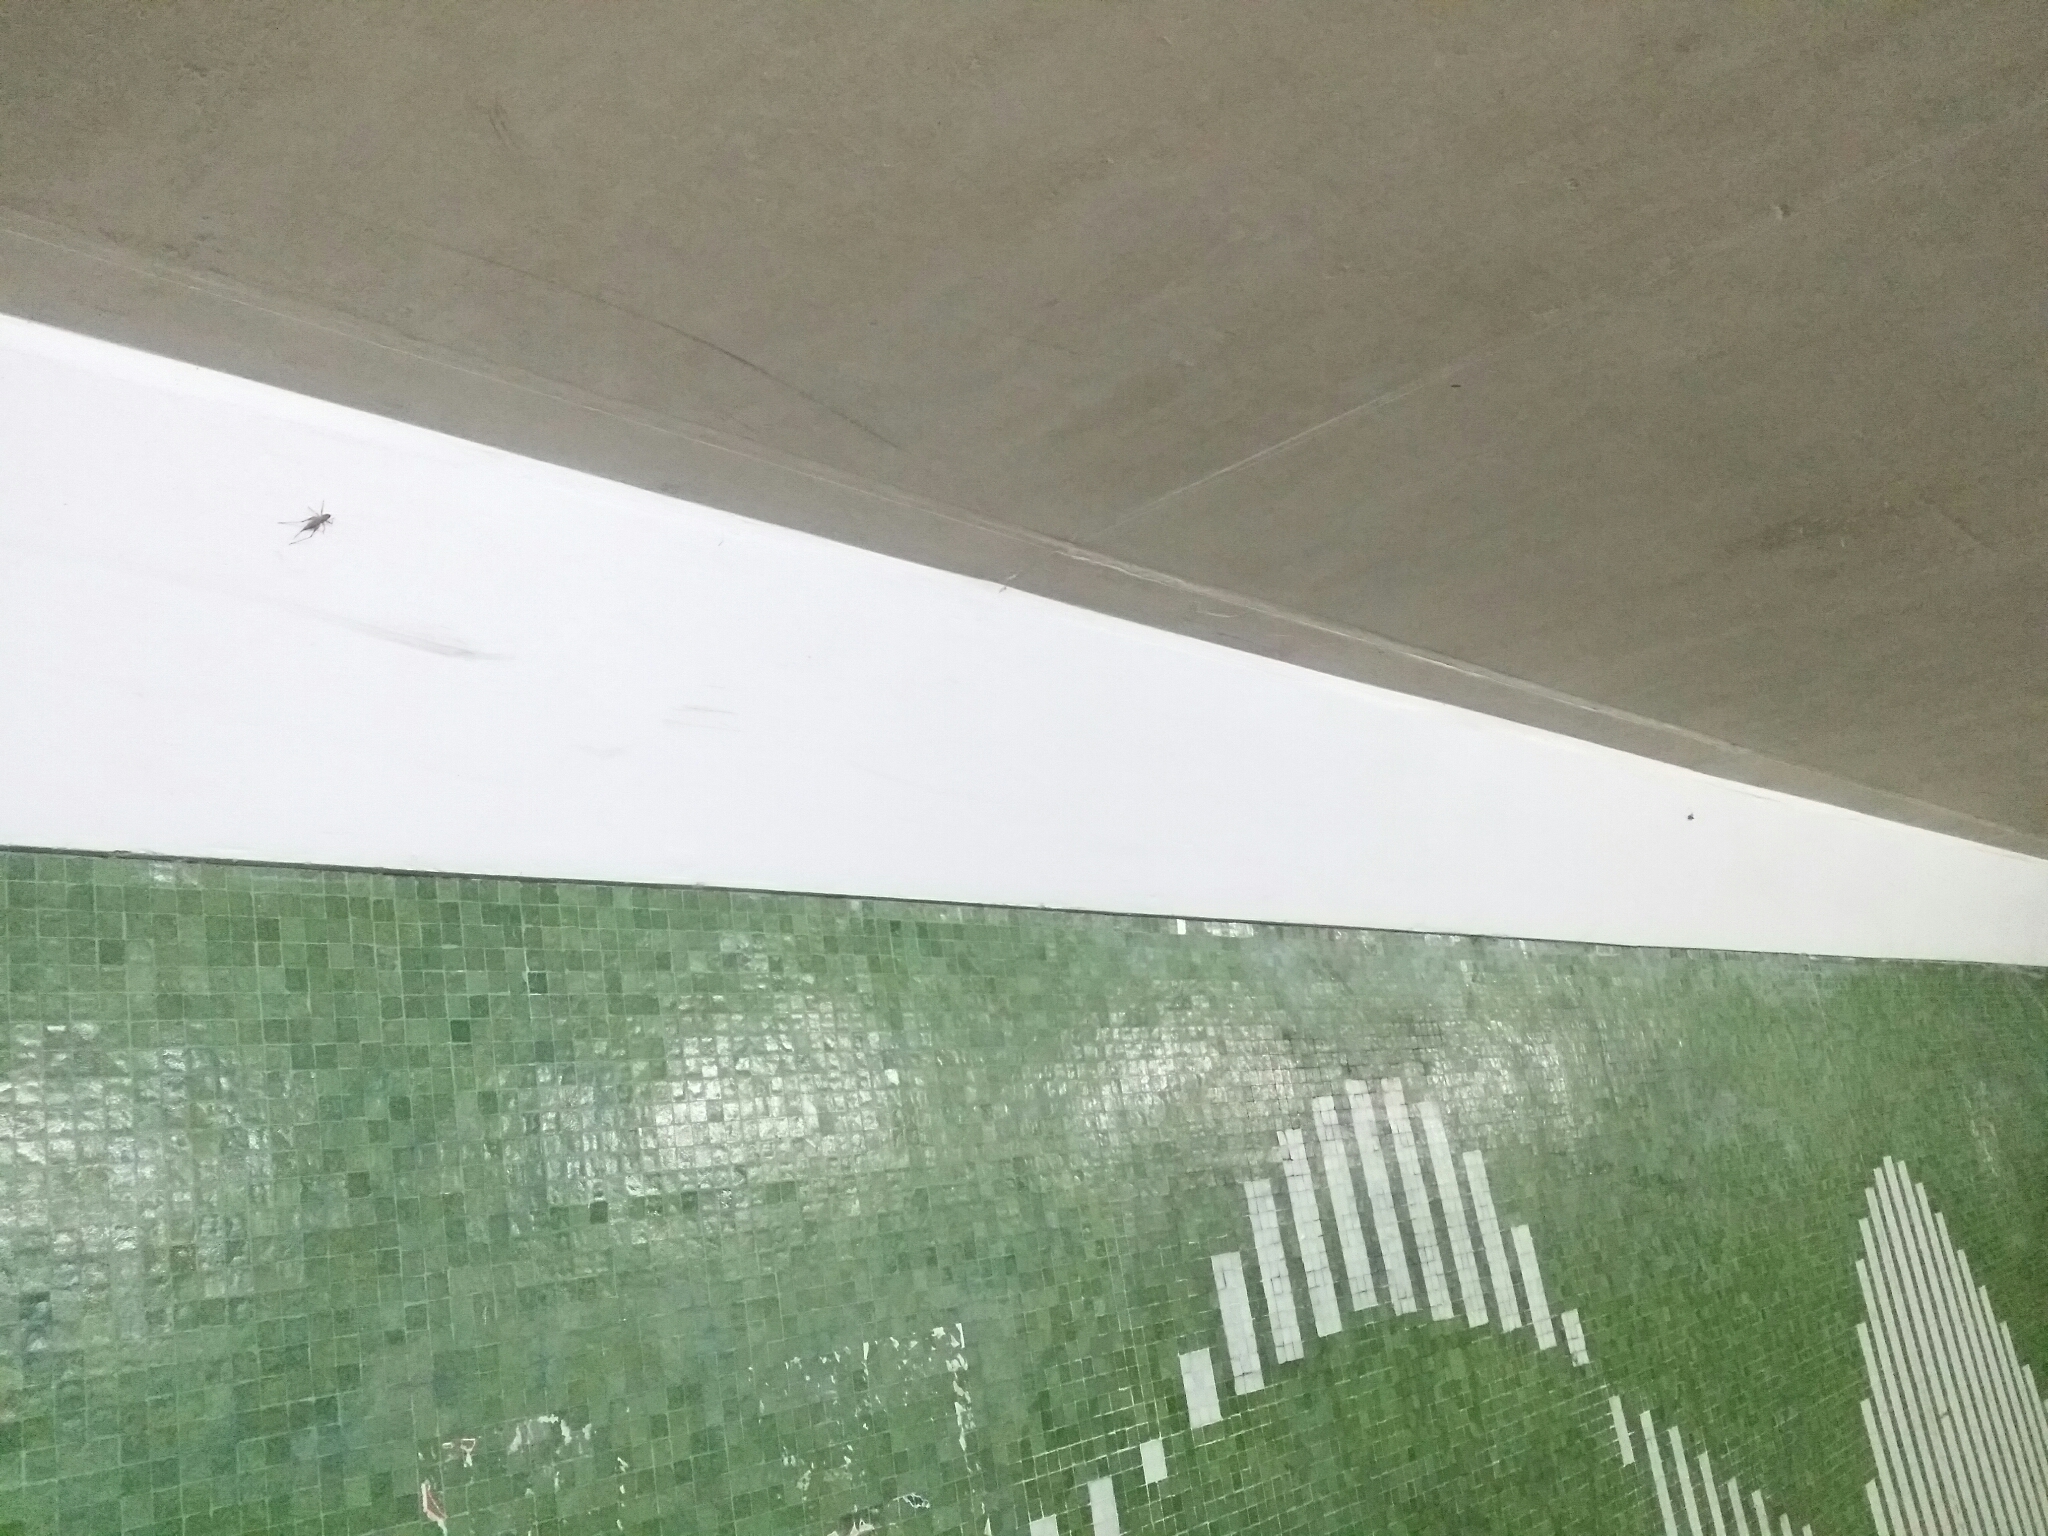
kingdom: Animalia
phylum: Arthropoda
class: Insecta
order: Orthoptera
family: Tettigoniidae
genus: Requena
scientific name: Requena verticalis
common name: Common western requena
